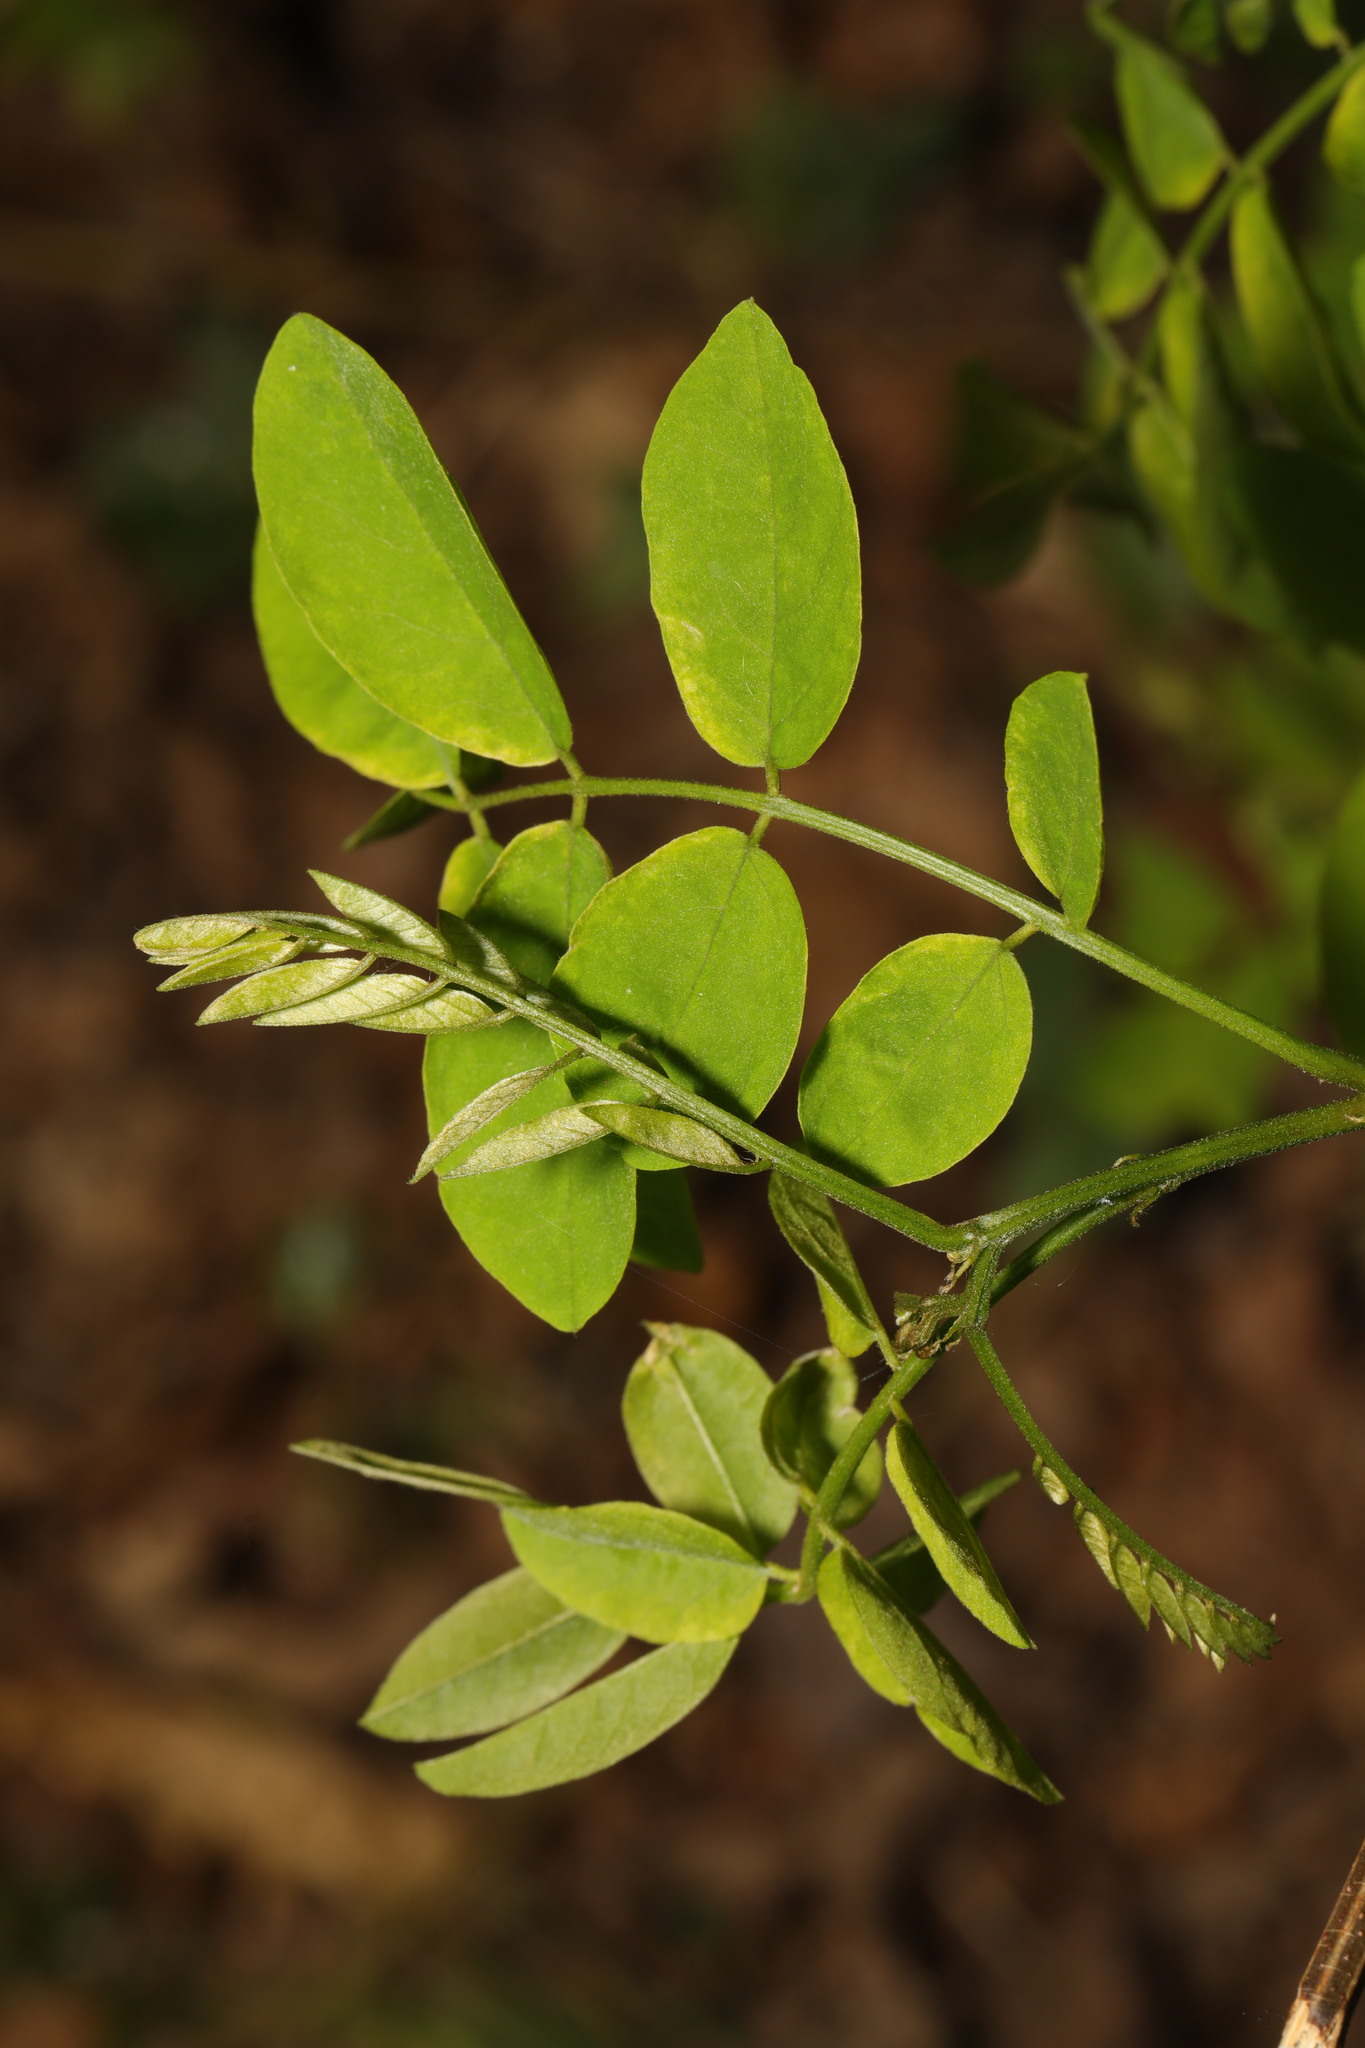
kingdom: Plantae
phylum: Tracheophyta
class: Magnoliopsida
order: Fabales
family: Fabaceae
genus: Robinia
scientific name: Robinia pseudoacacia
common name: Black locust
